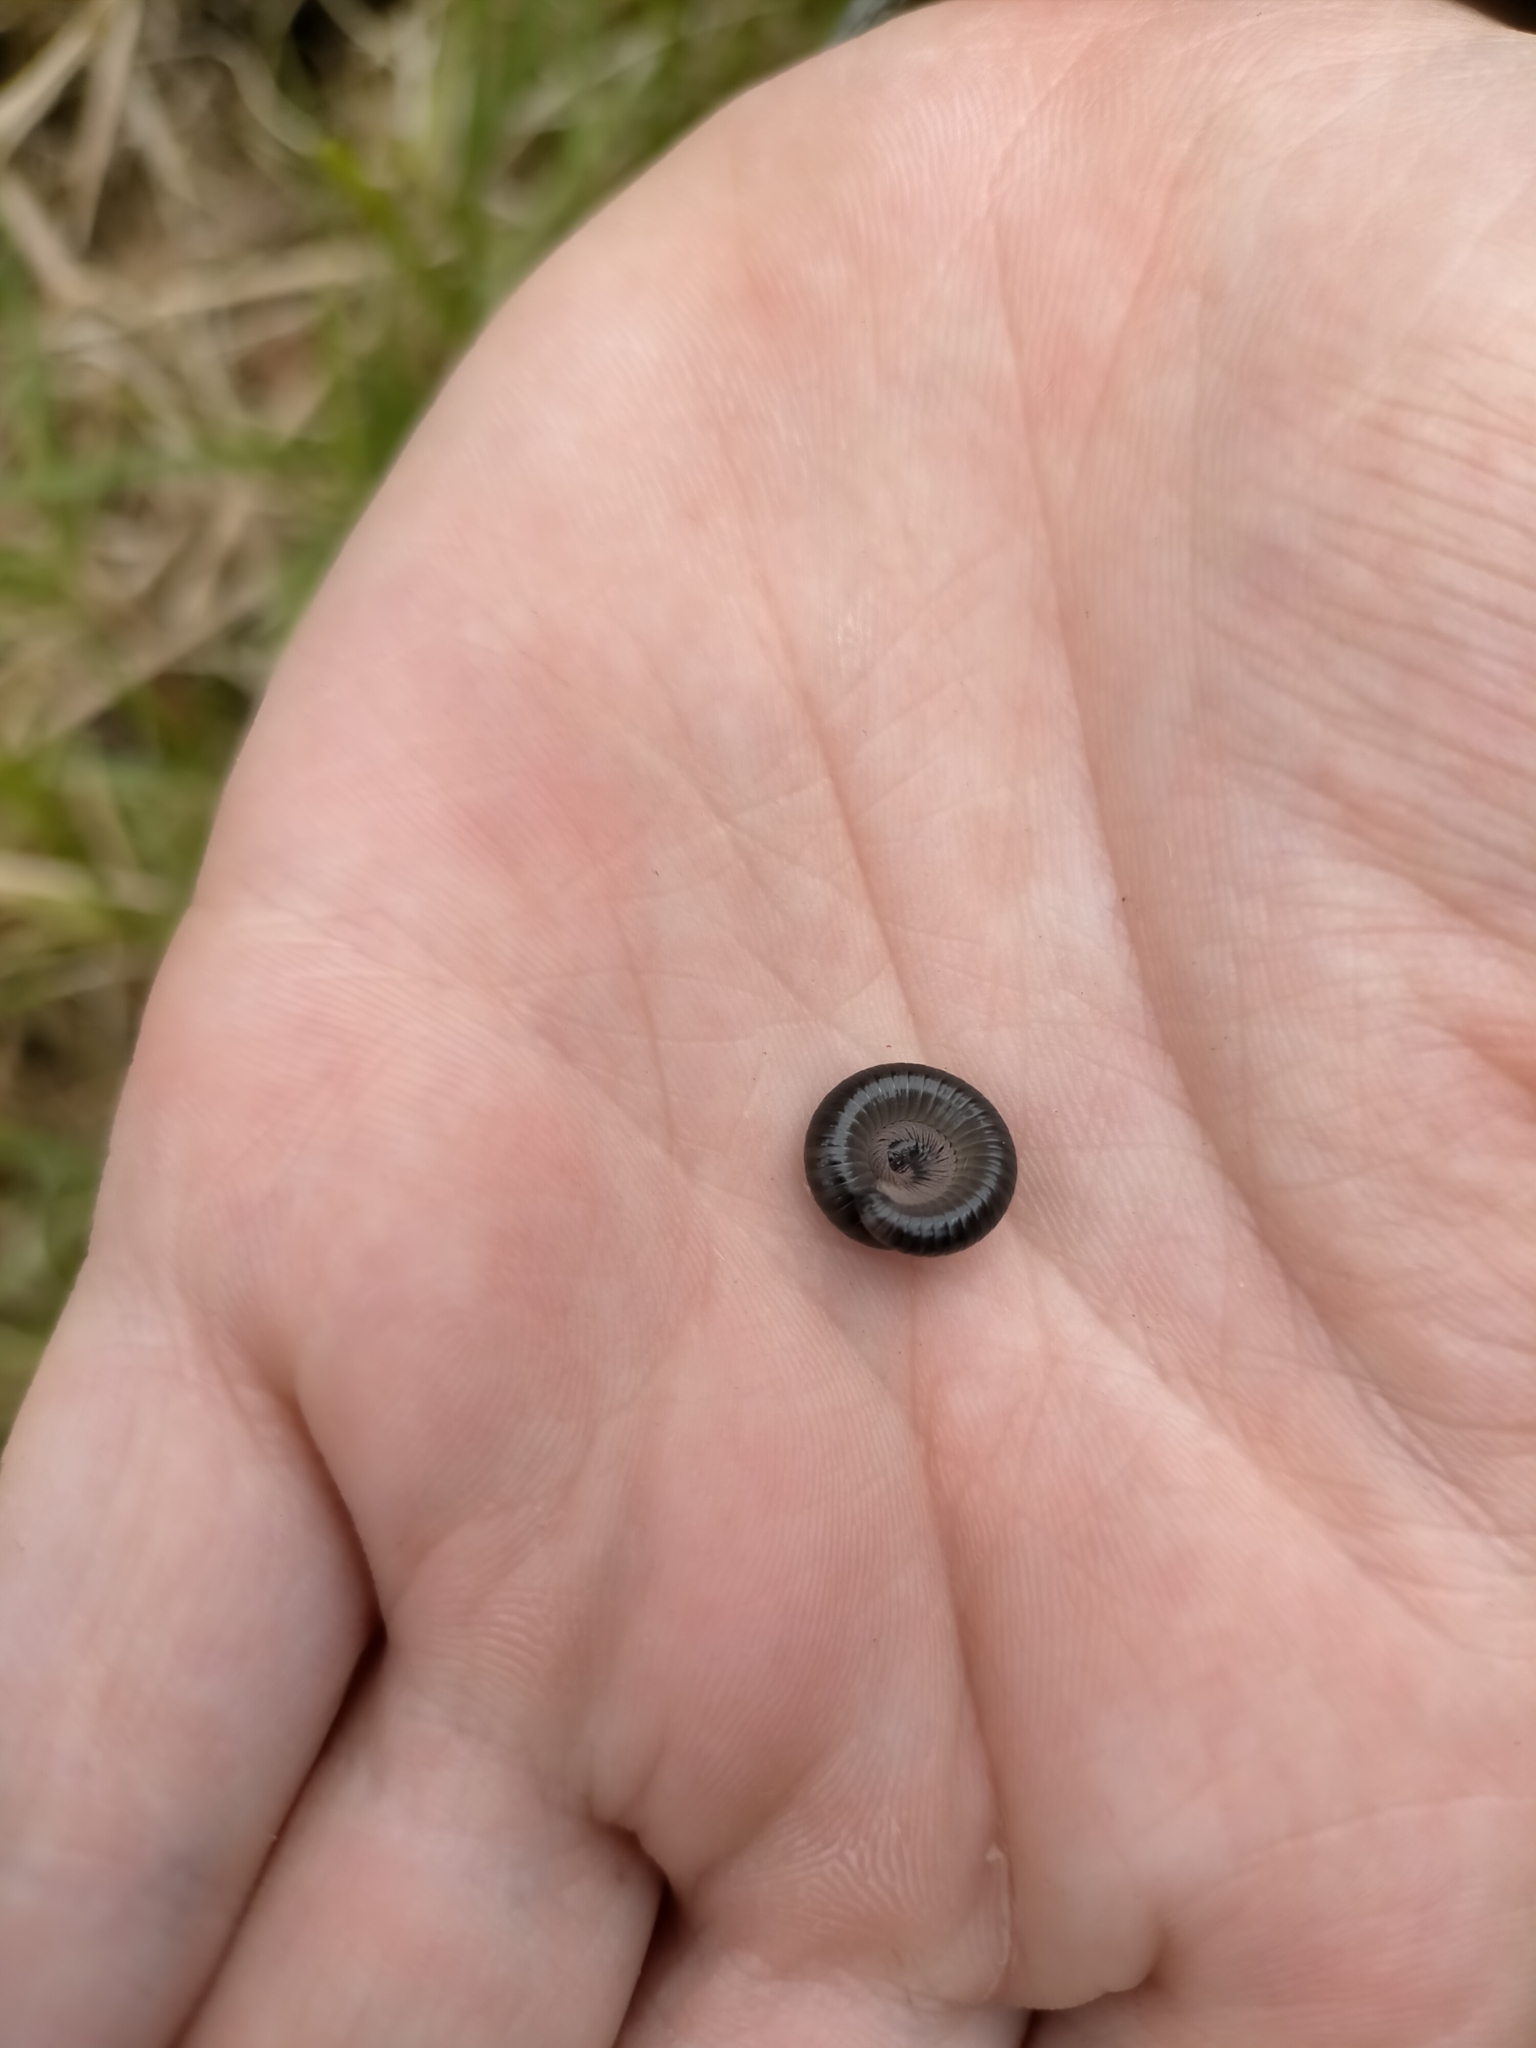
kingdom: Animalia
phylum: Arthropoda
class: Diplopoda
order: Julida
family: Julidae
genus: Ommatoiulus
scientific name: Ommatoiulus moreleti
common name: Portuguese millipede
